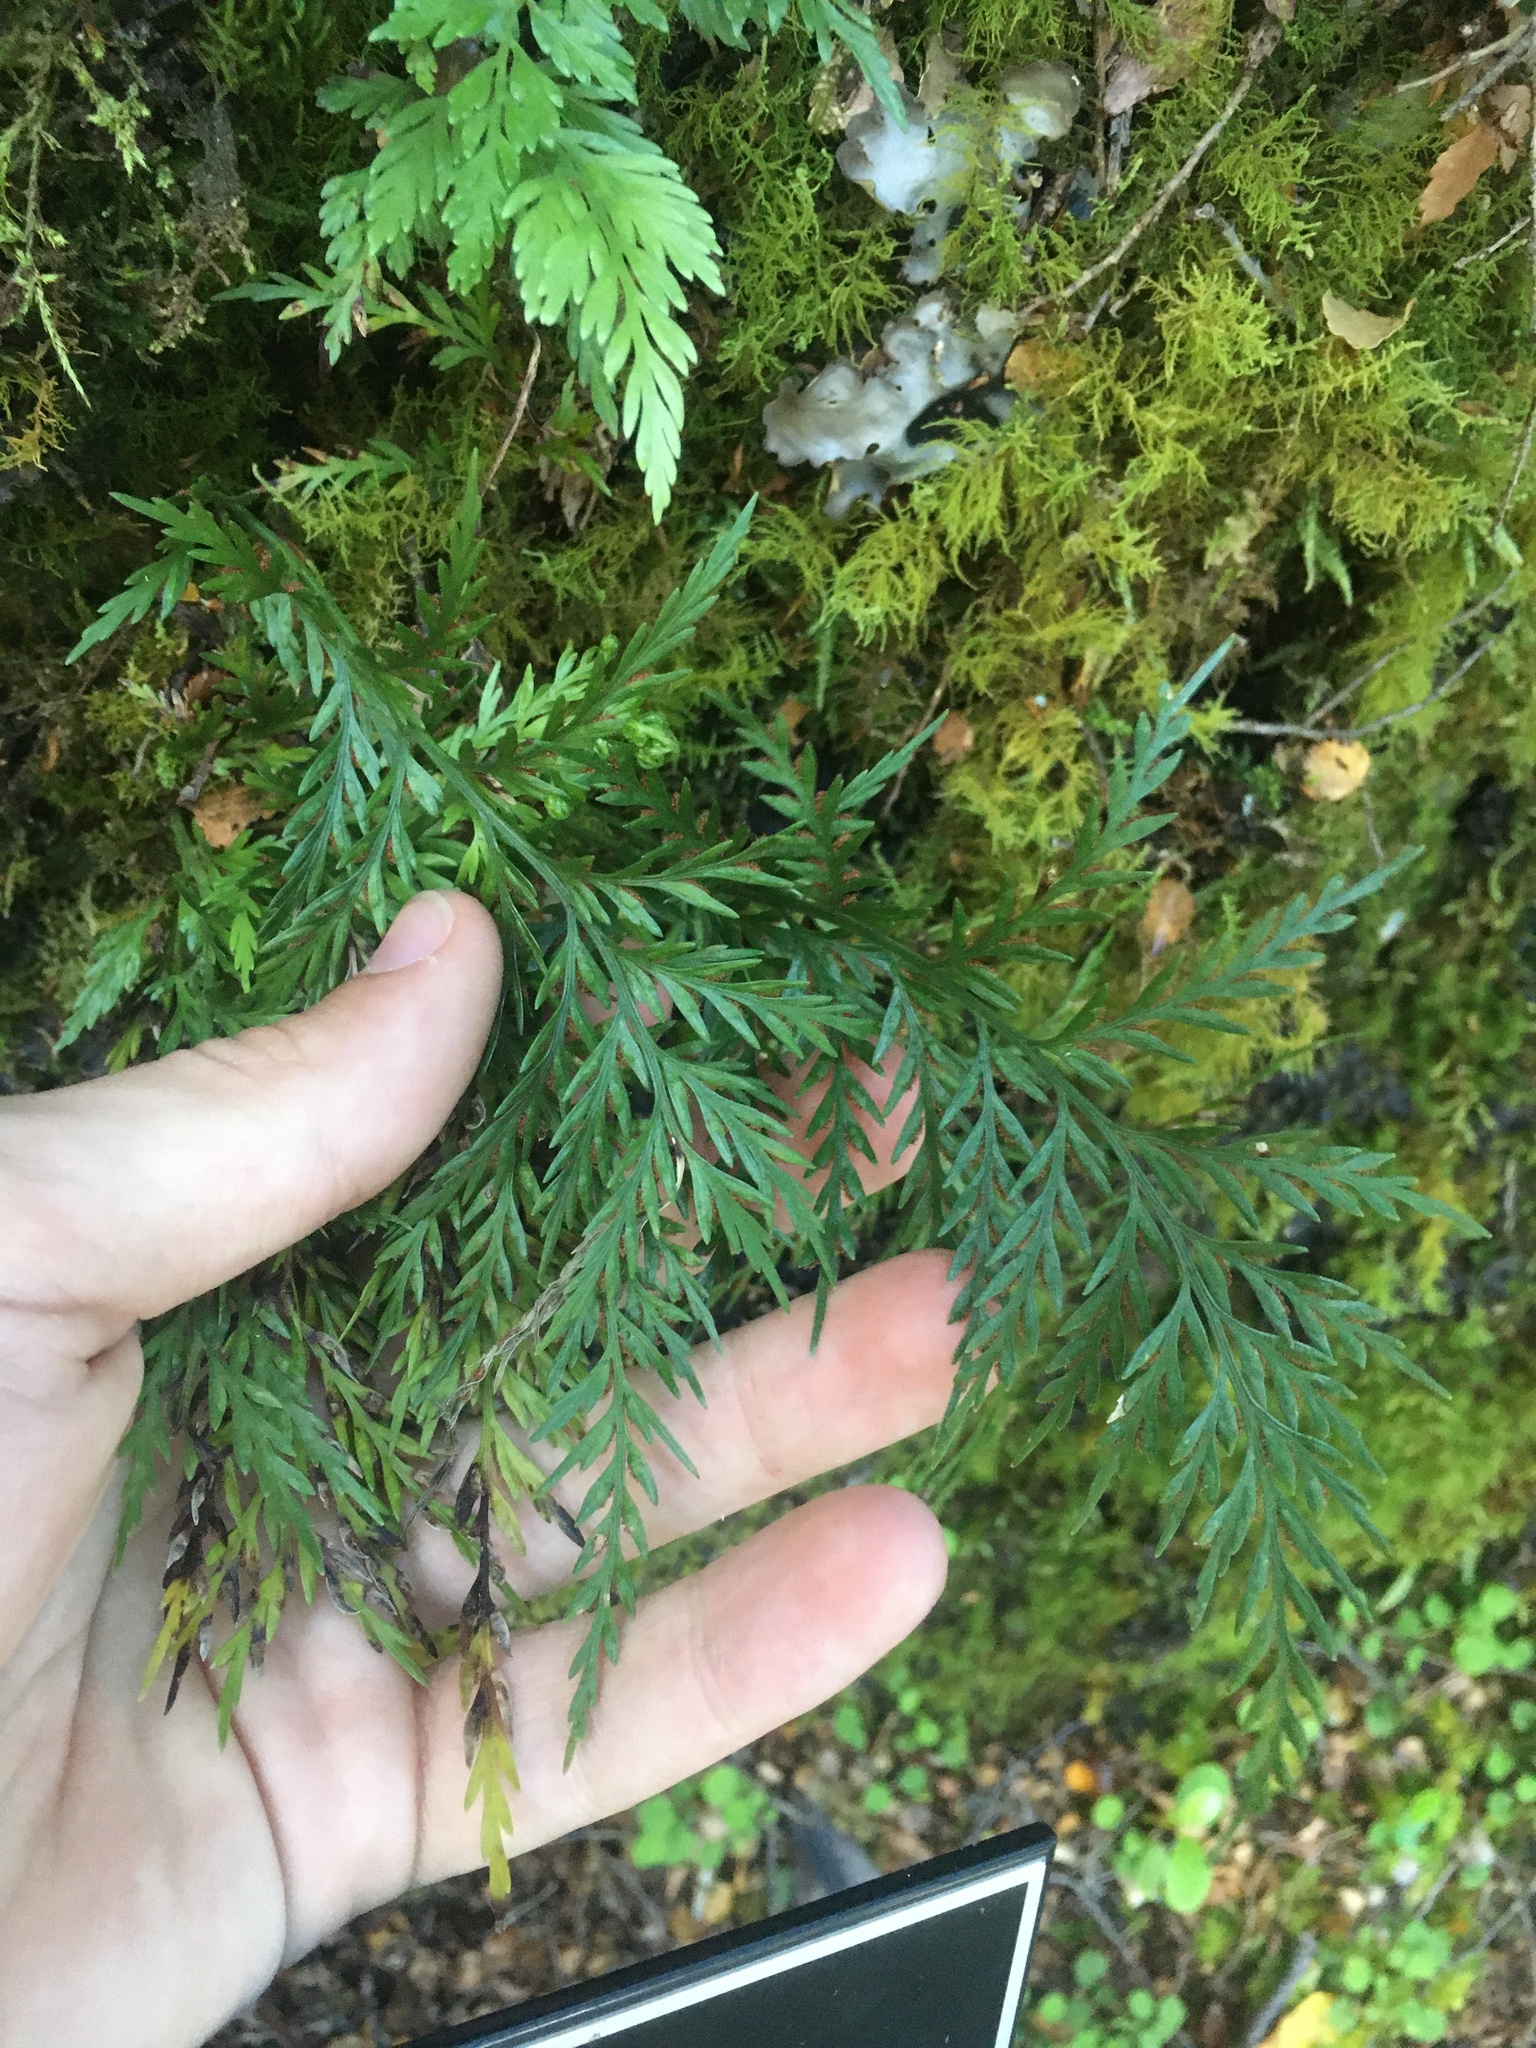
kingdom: Plantae
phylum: Tracheophyta
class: Polypodiopsida
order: Polypodiales
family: Aspleniaceae
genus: Asplenium
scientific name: Asplenium richardii
